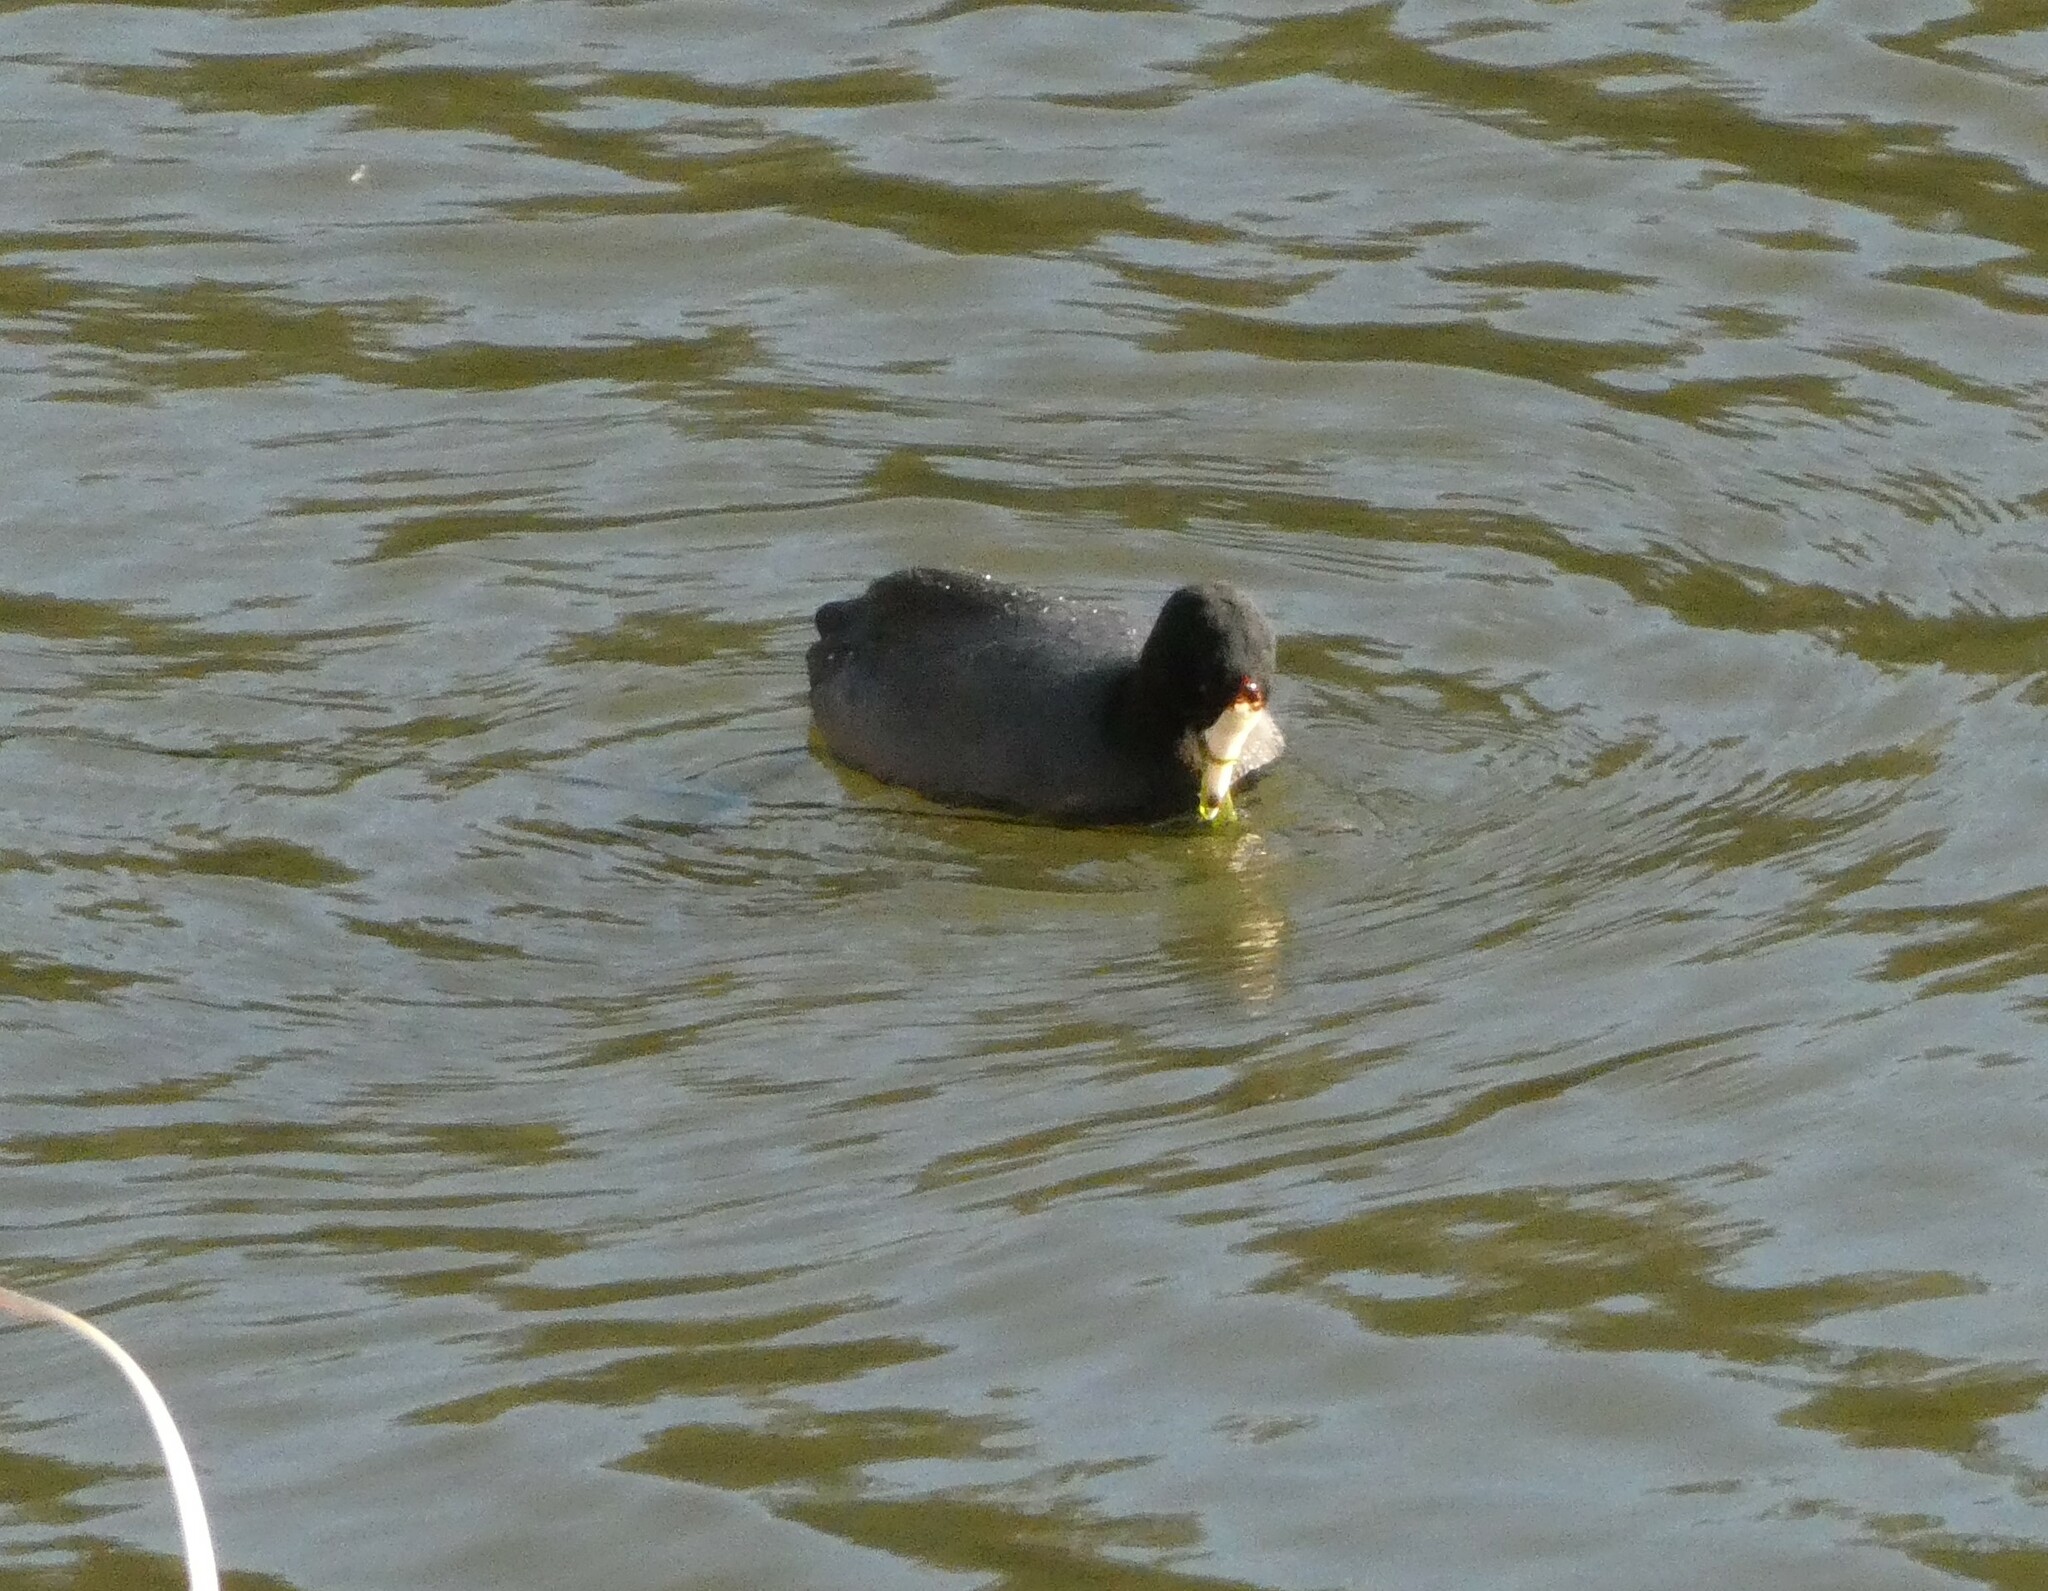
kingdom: Animalia
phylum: Chordata
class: Aves
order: Gruiformes
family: Rallidae
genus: Fulica
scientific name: Fulica americana
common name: American coot
